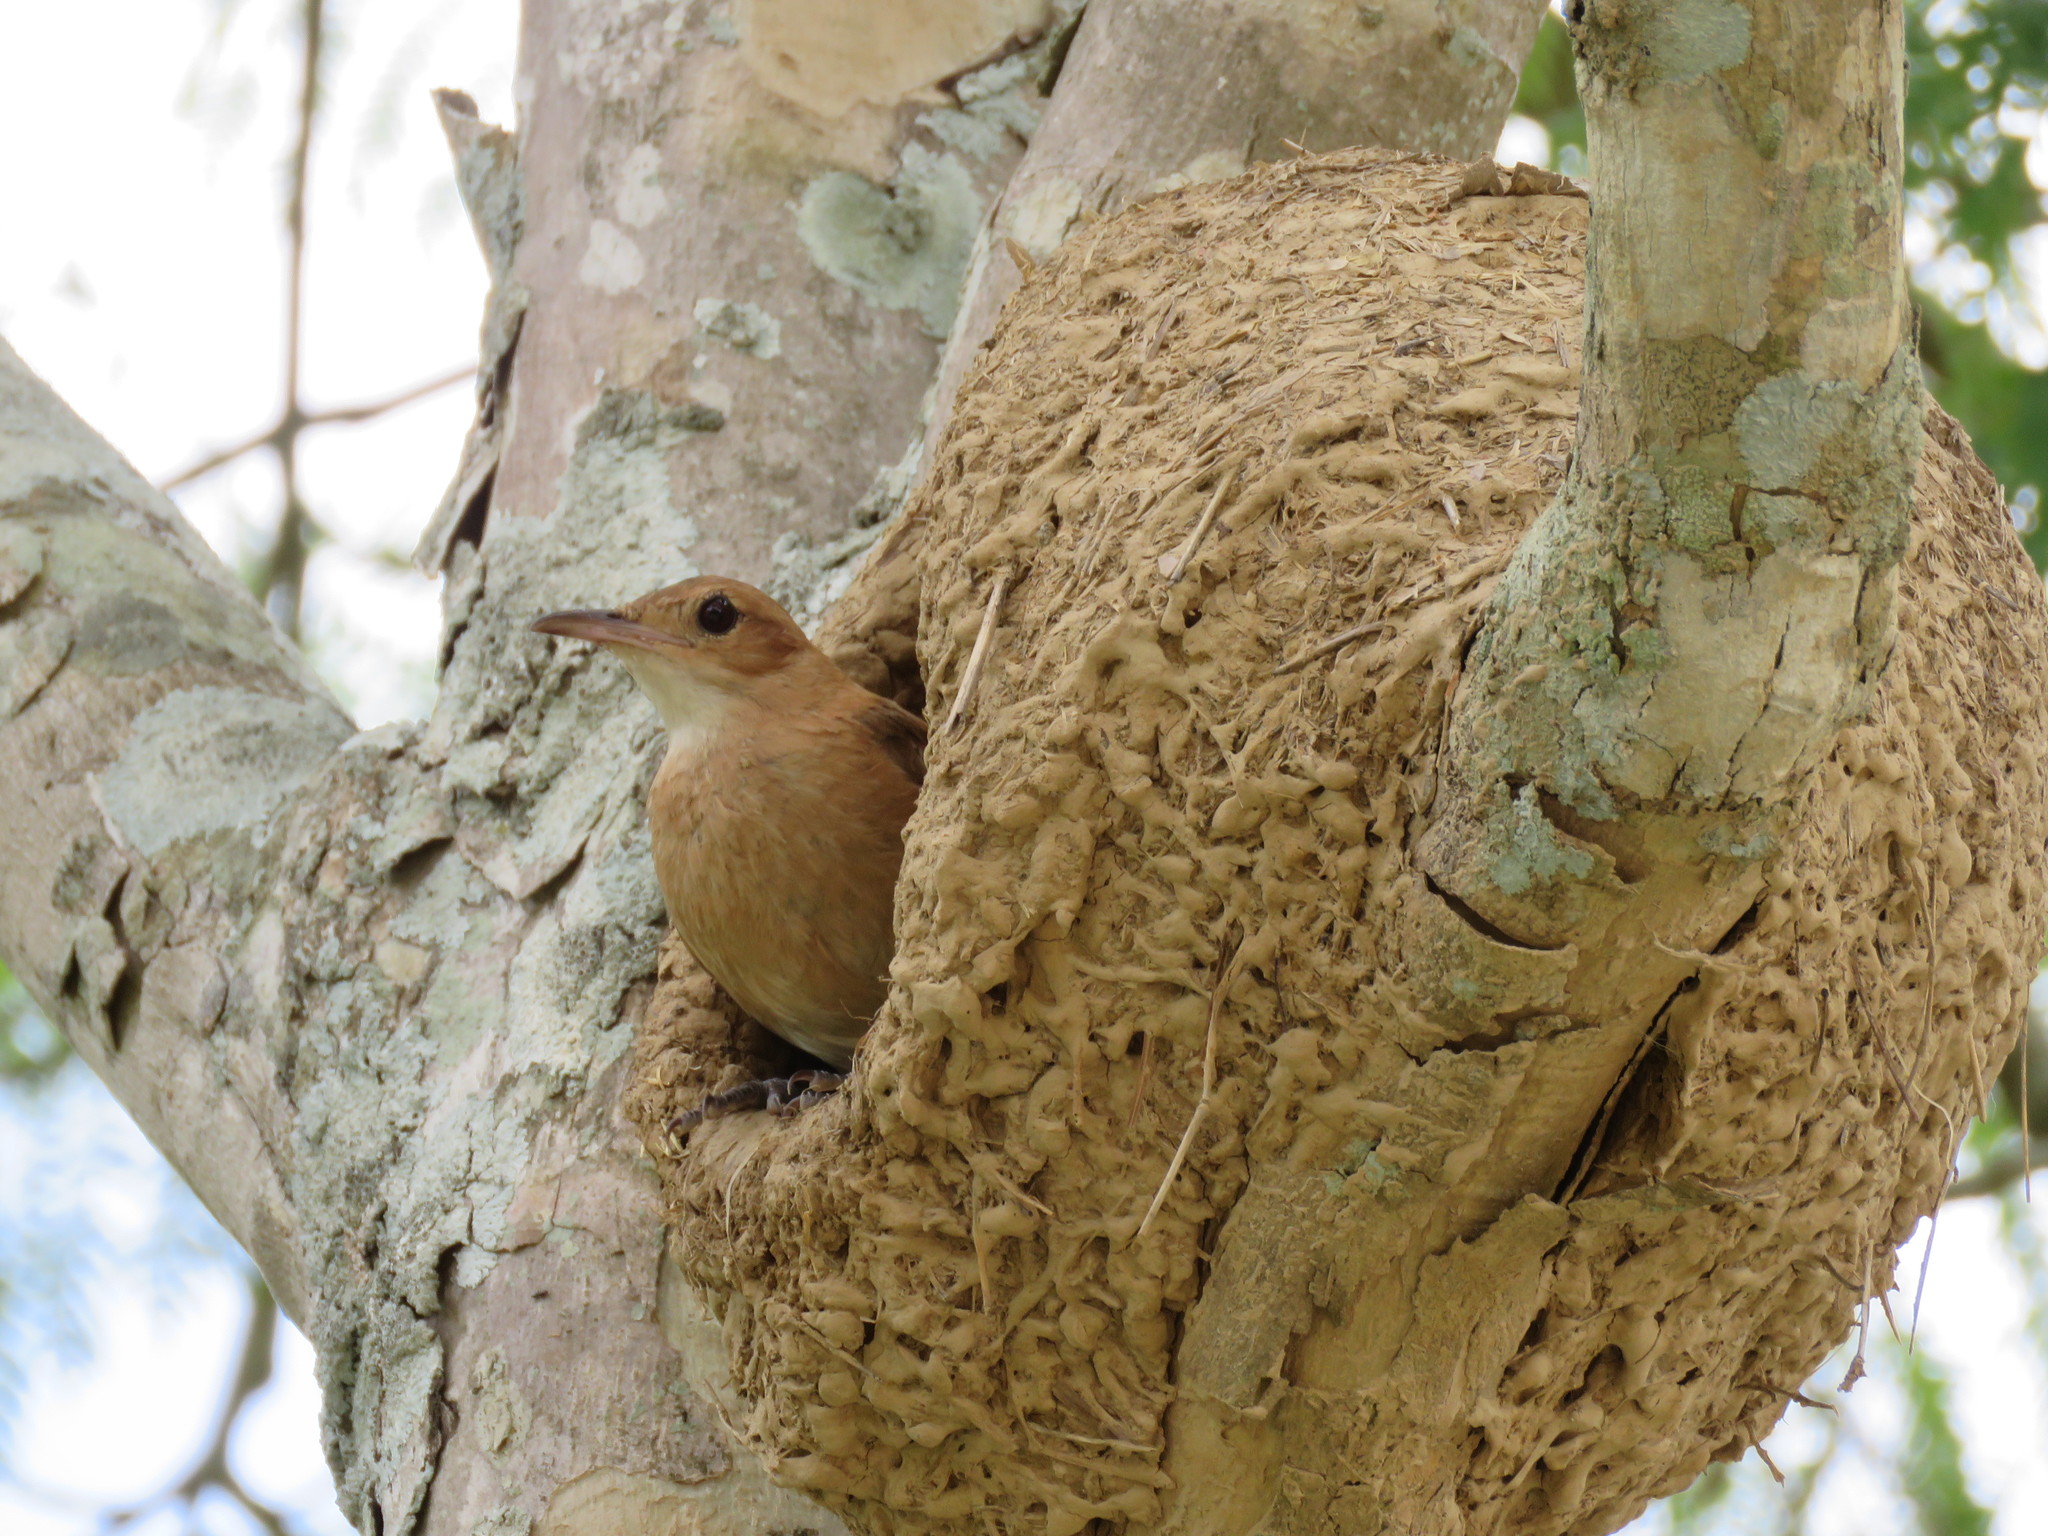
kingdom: Animalia
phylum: Chordata
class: Aves
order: Passeriformes
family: Furnariidae
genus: Furnarius
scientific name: Furnarius rufus
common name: Rufous hornero
